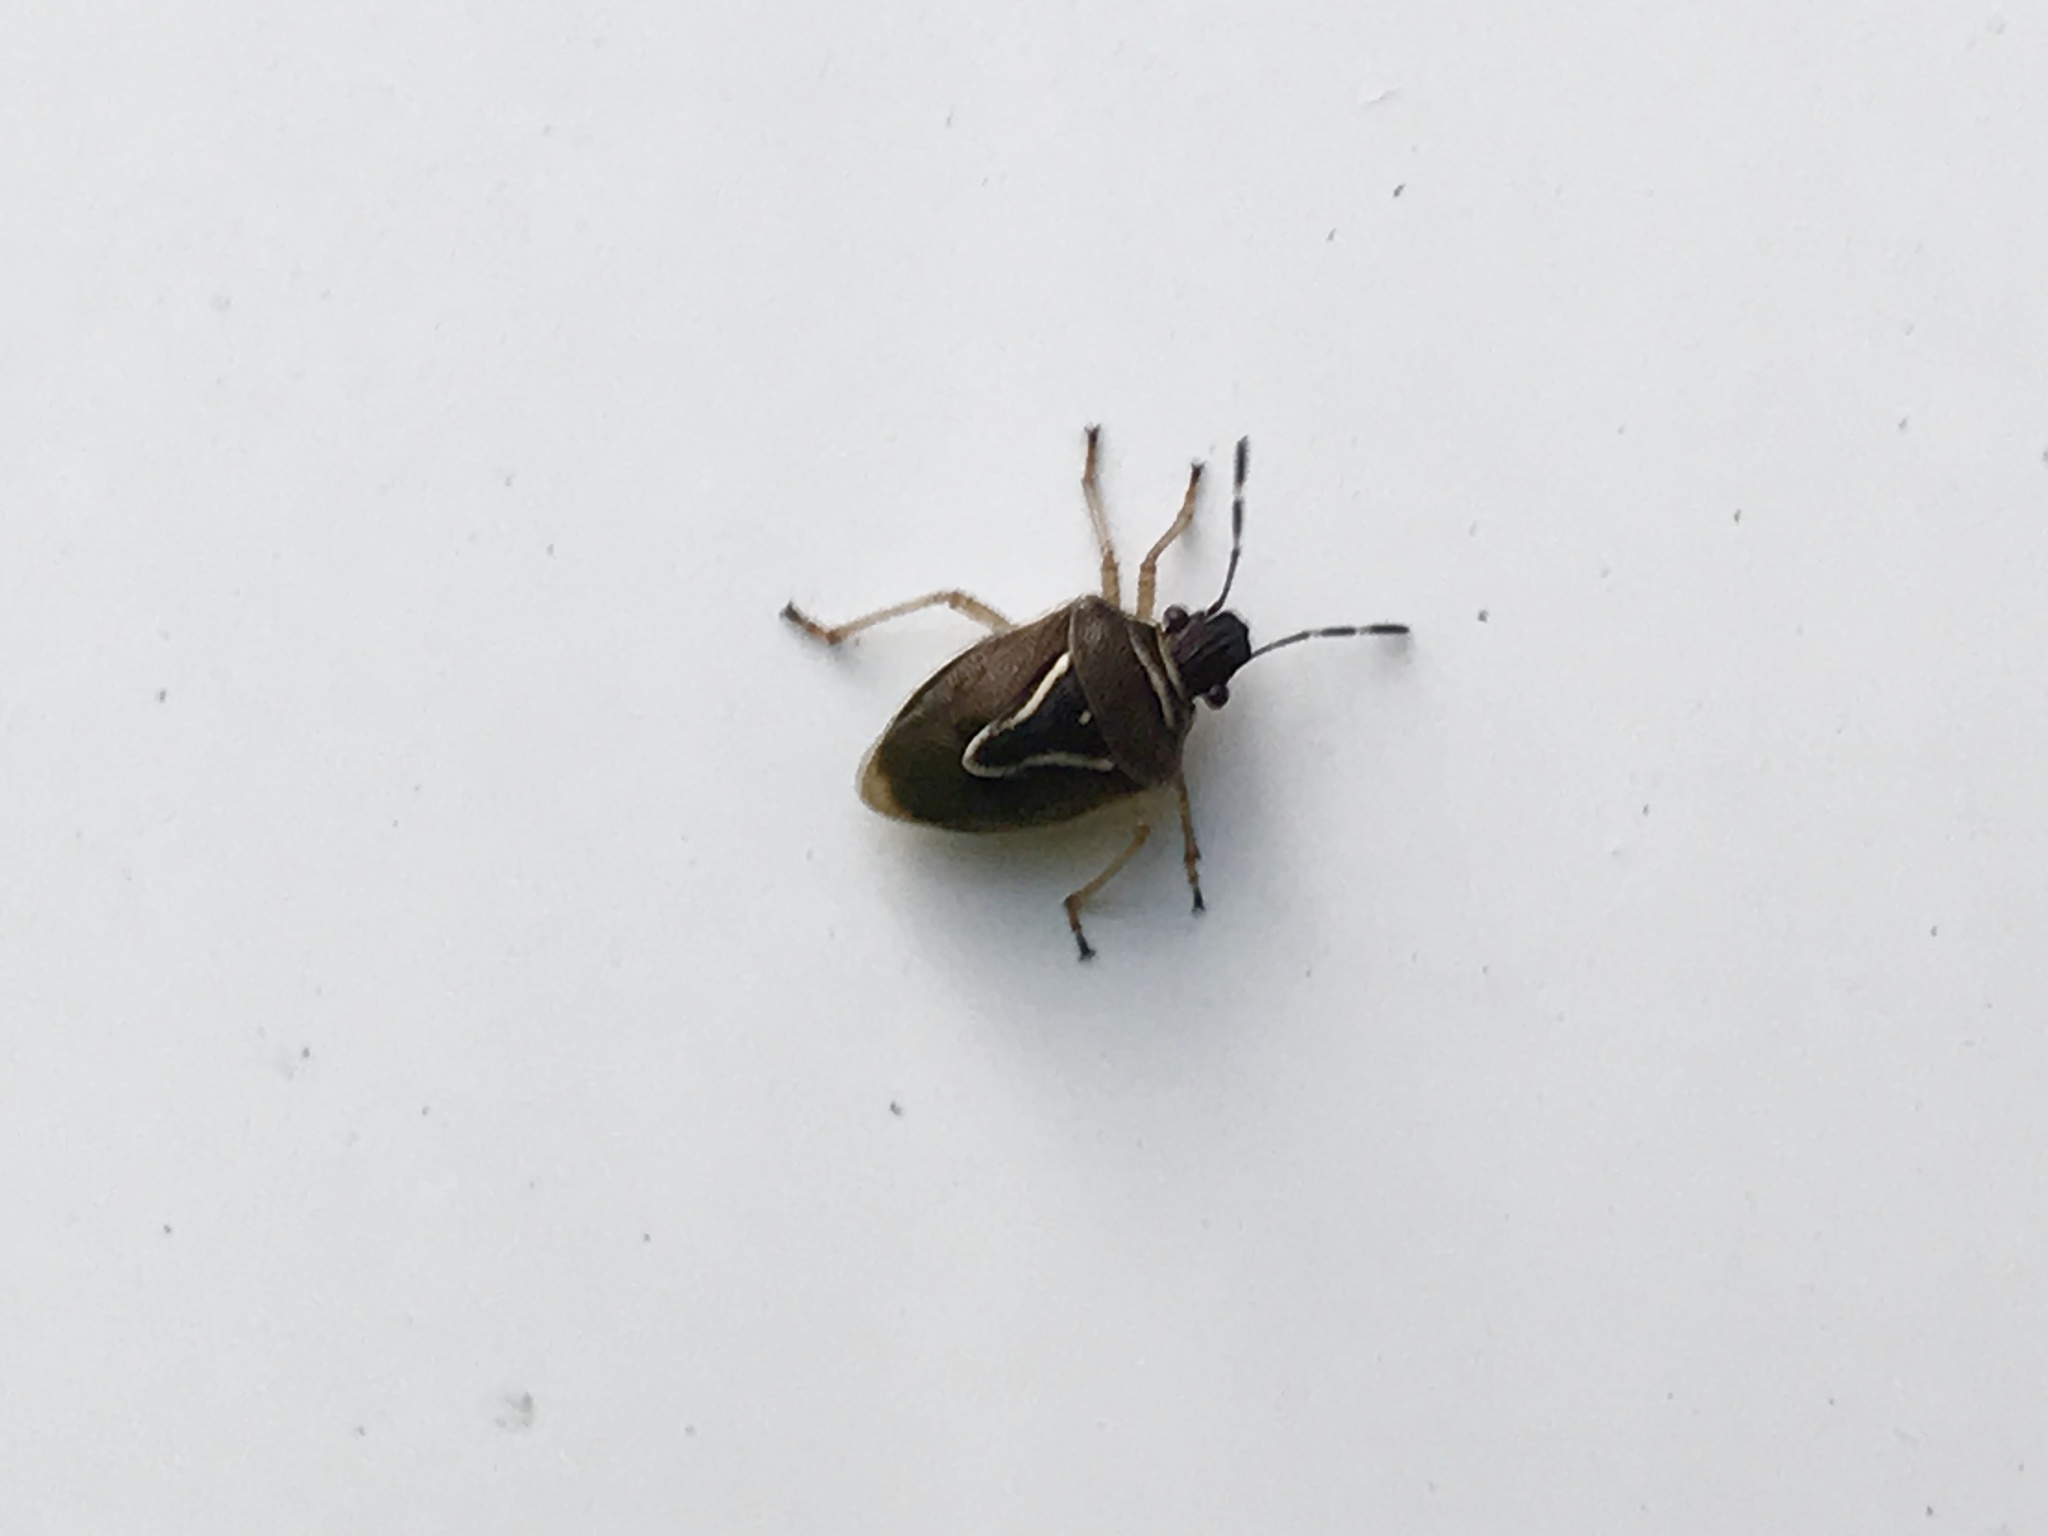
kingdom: Animalia
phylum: Arthropoda
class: Insecta
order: Hemiptera
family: Pentatomidae
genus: Mormidea
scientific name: Mormidea lugens
